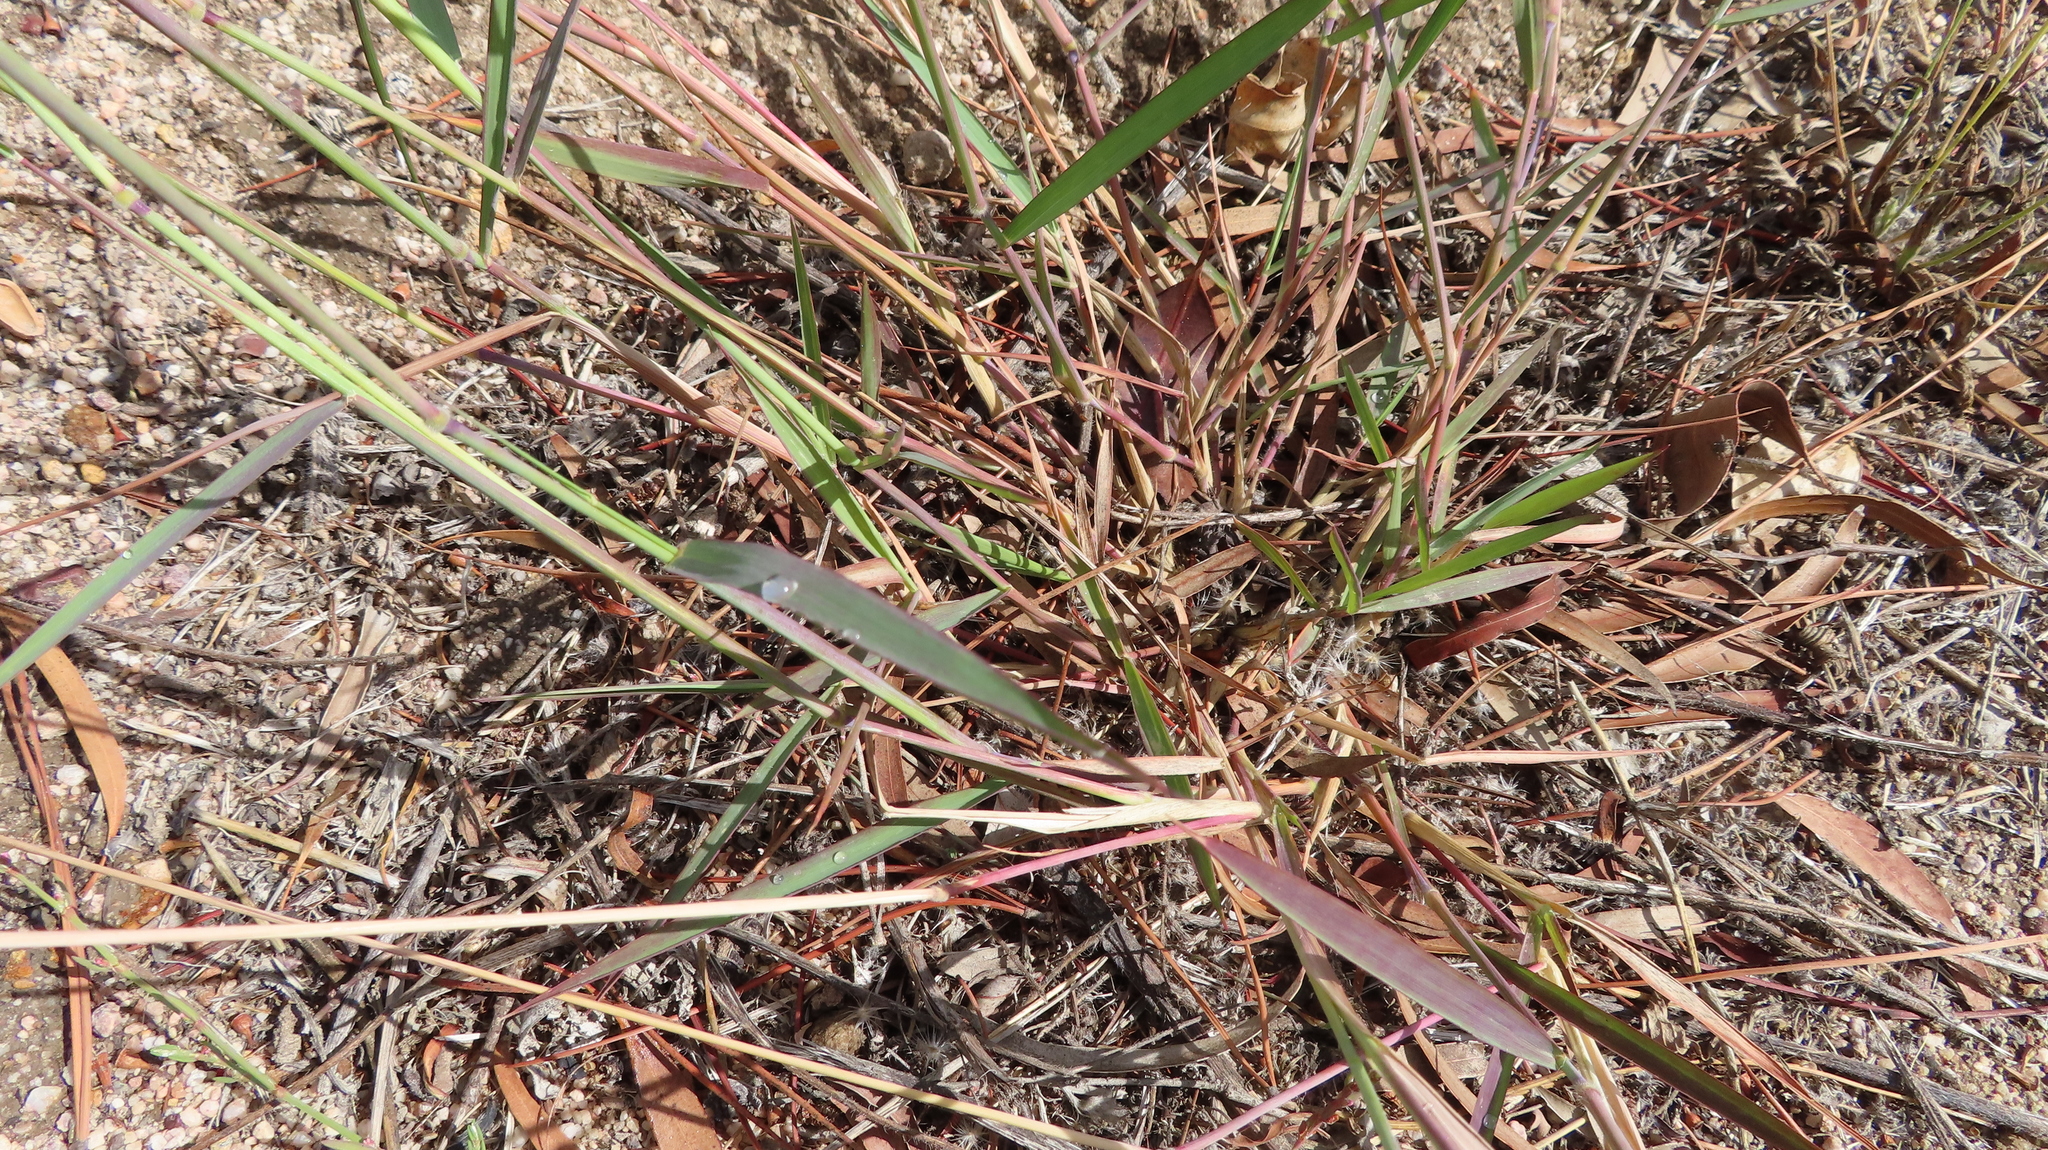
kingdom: Plantae
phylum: Tracheophyta
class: Liliopsida
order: Poales
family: Poaceae
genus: Melinis
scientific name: Melinis repens
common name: Rose natal grass
